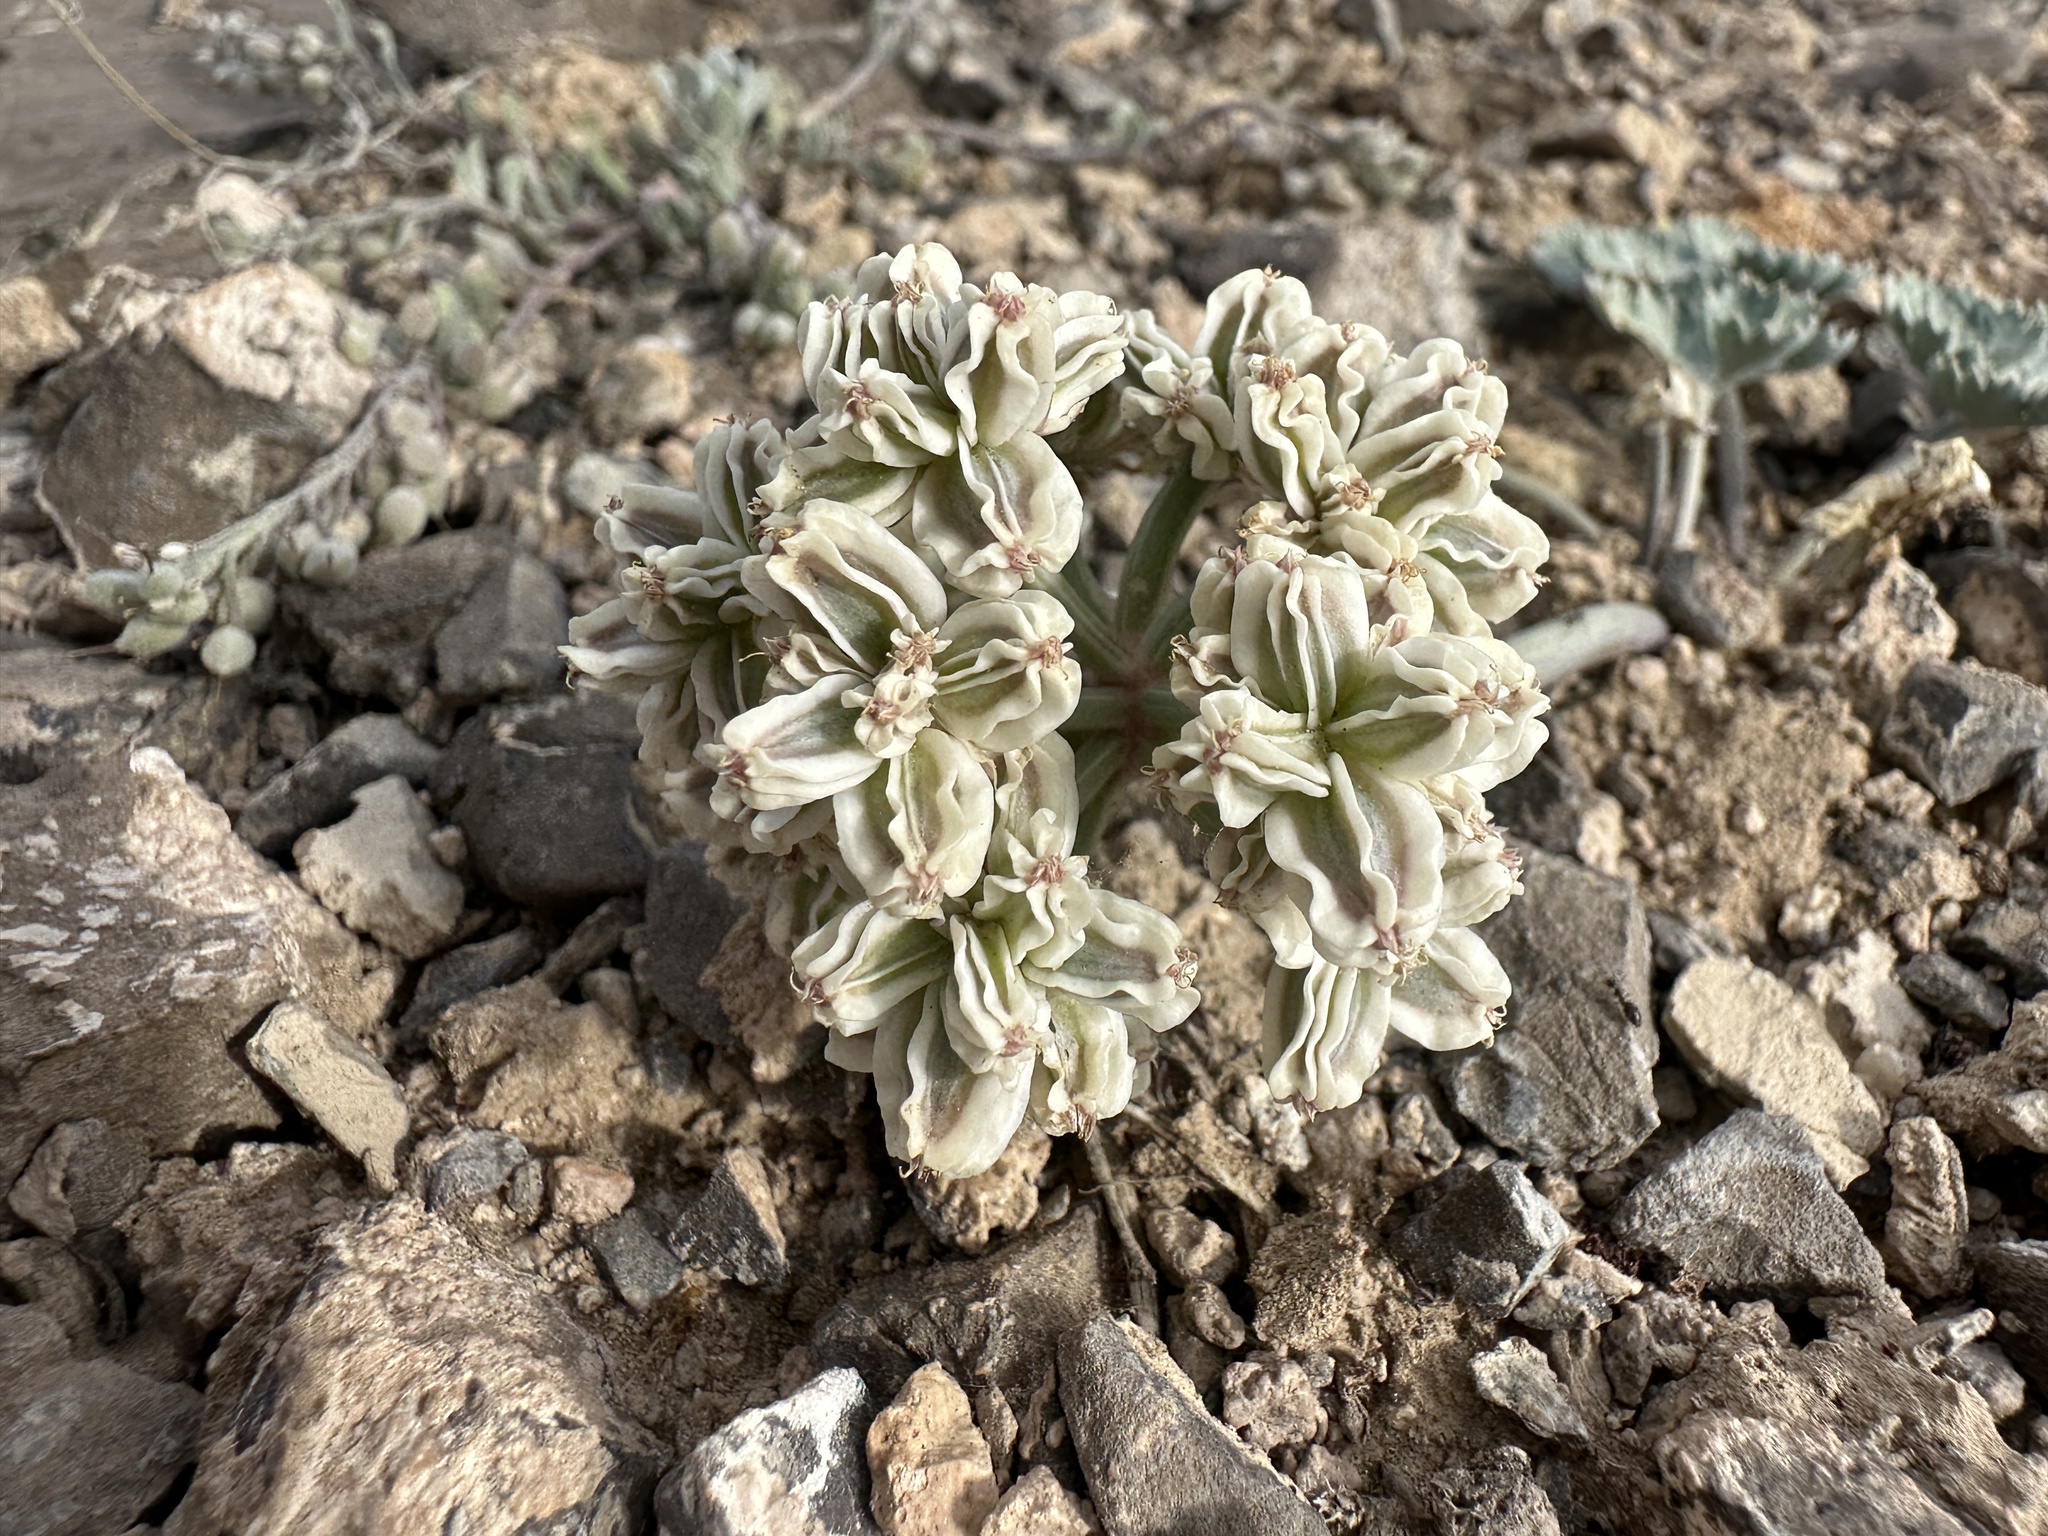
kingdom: Plantae
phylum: Tracheophyta
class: Magnoliopsida
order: Apiales
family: Apiaceae
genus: Aulospermum
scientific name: Aulospermum basalticum
